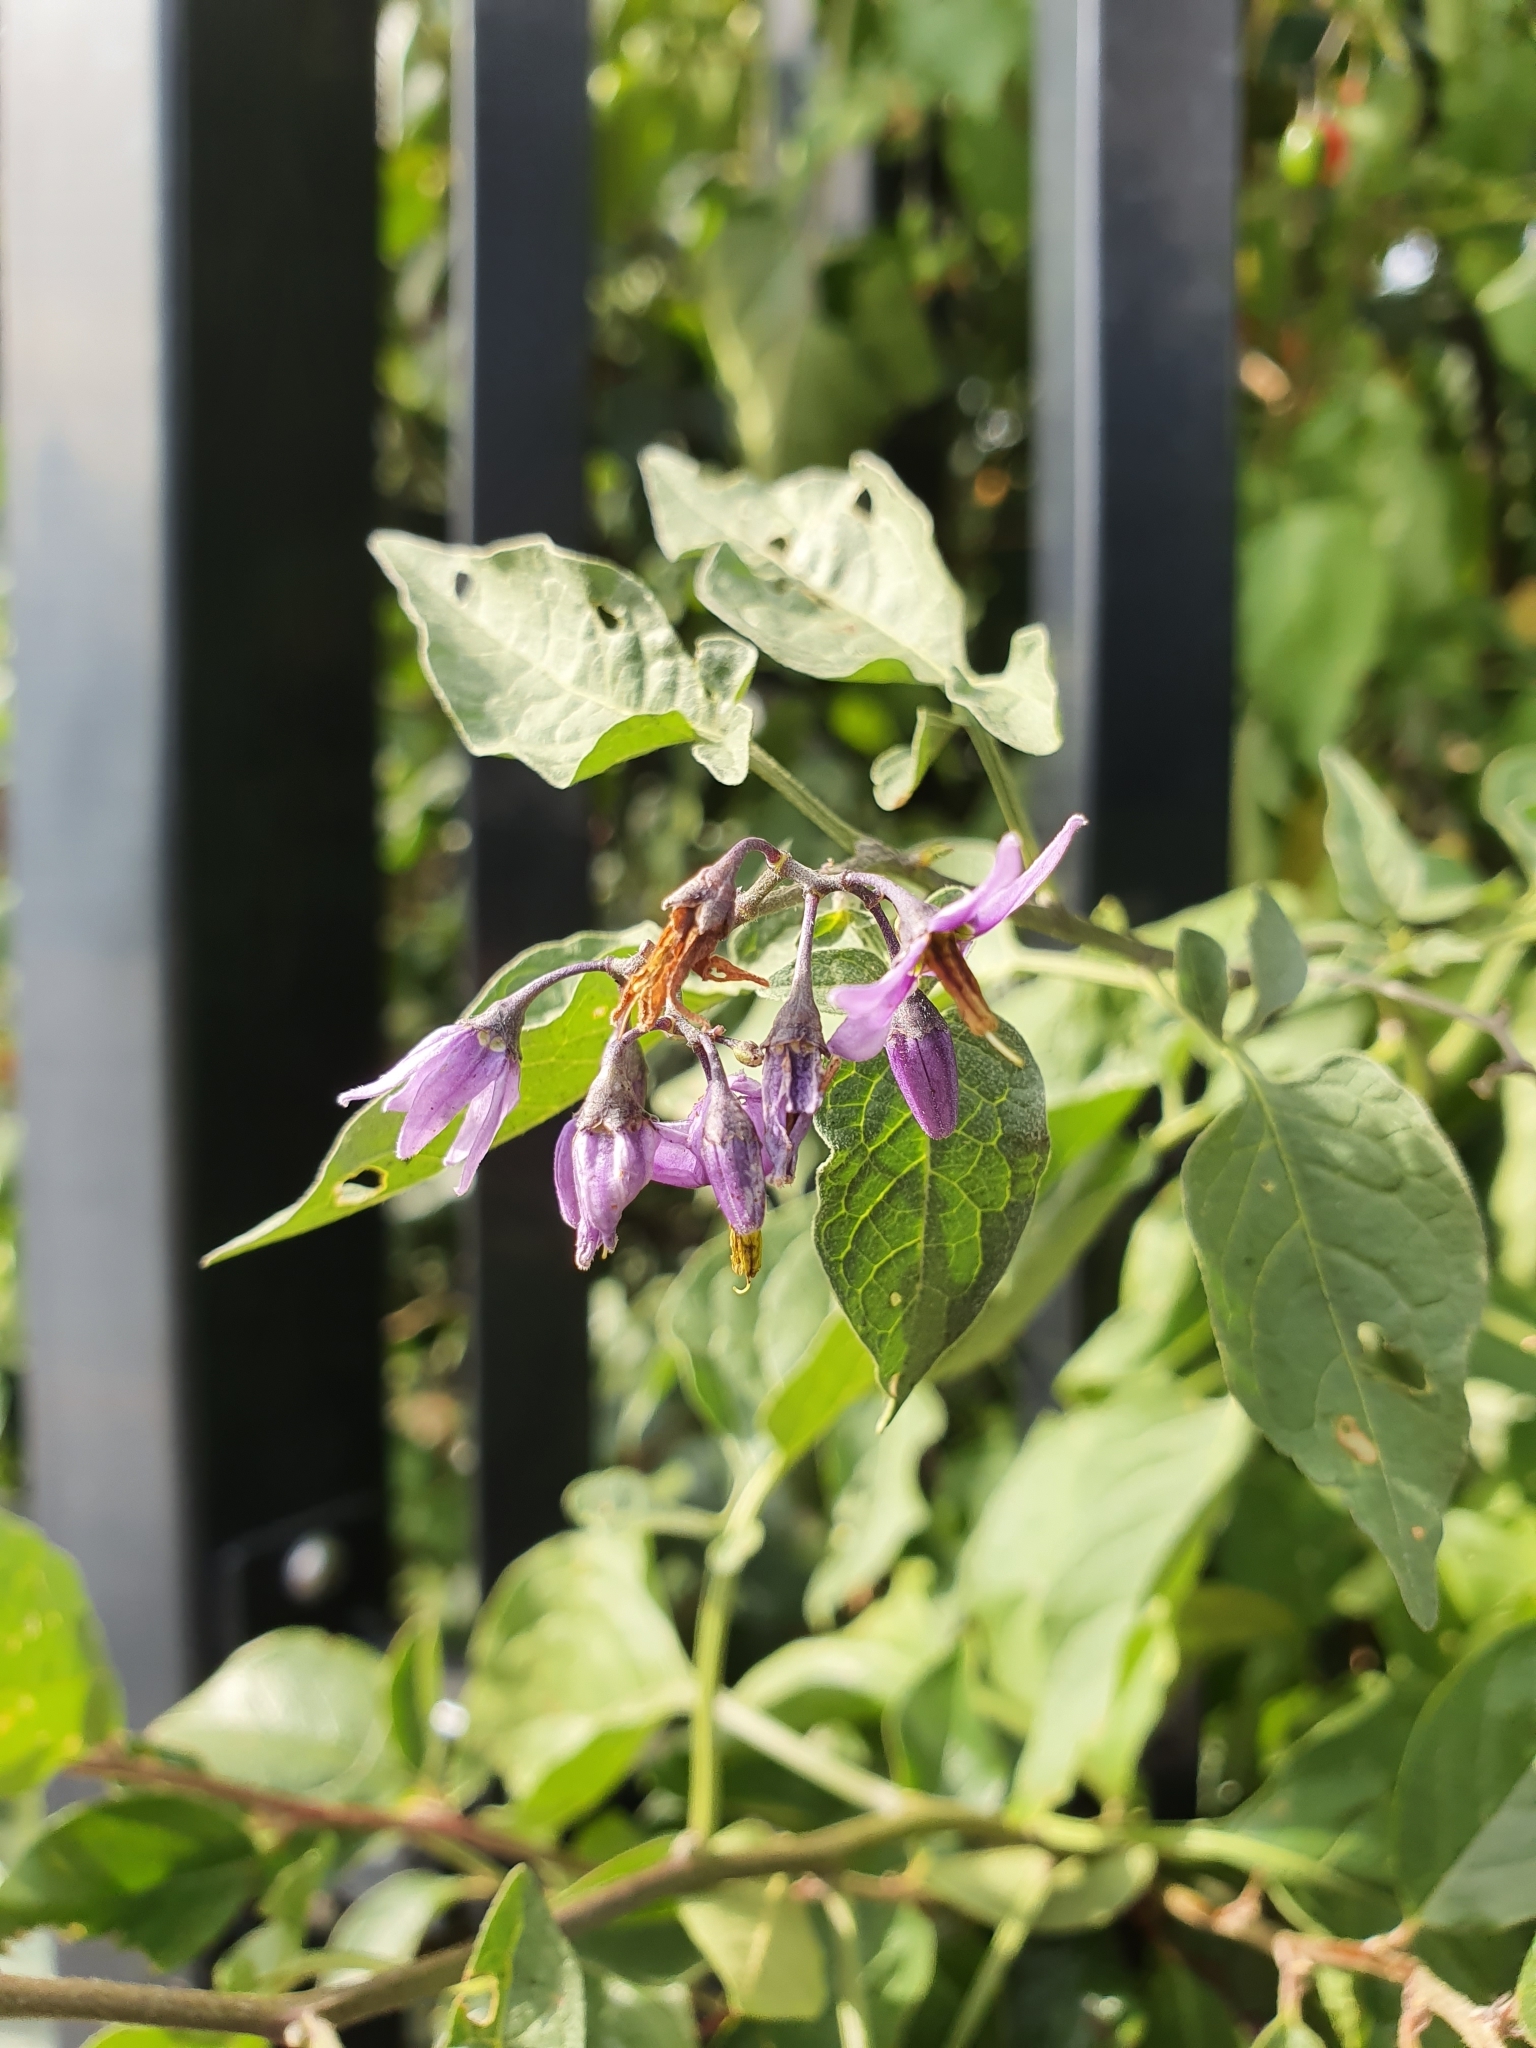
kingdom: Plantae
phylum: Tracheophyta
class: Magnoliopsida
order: Solanales
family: Solanaceae
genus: Solanum
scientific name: Solanum dulcamara
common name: Climbing nightshade
